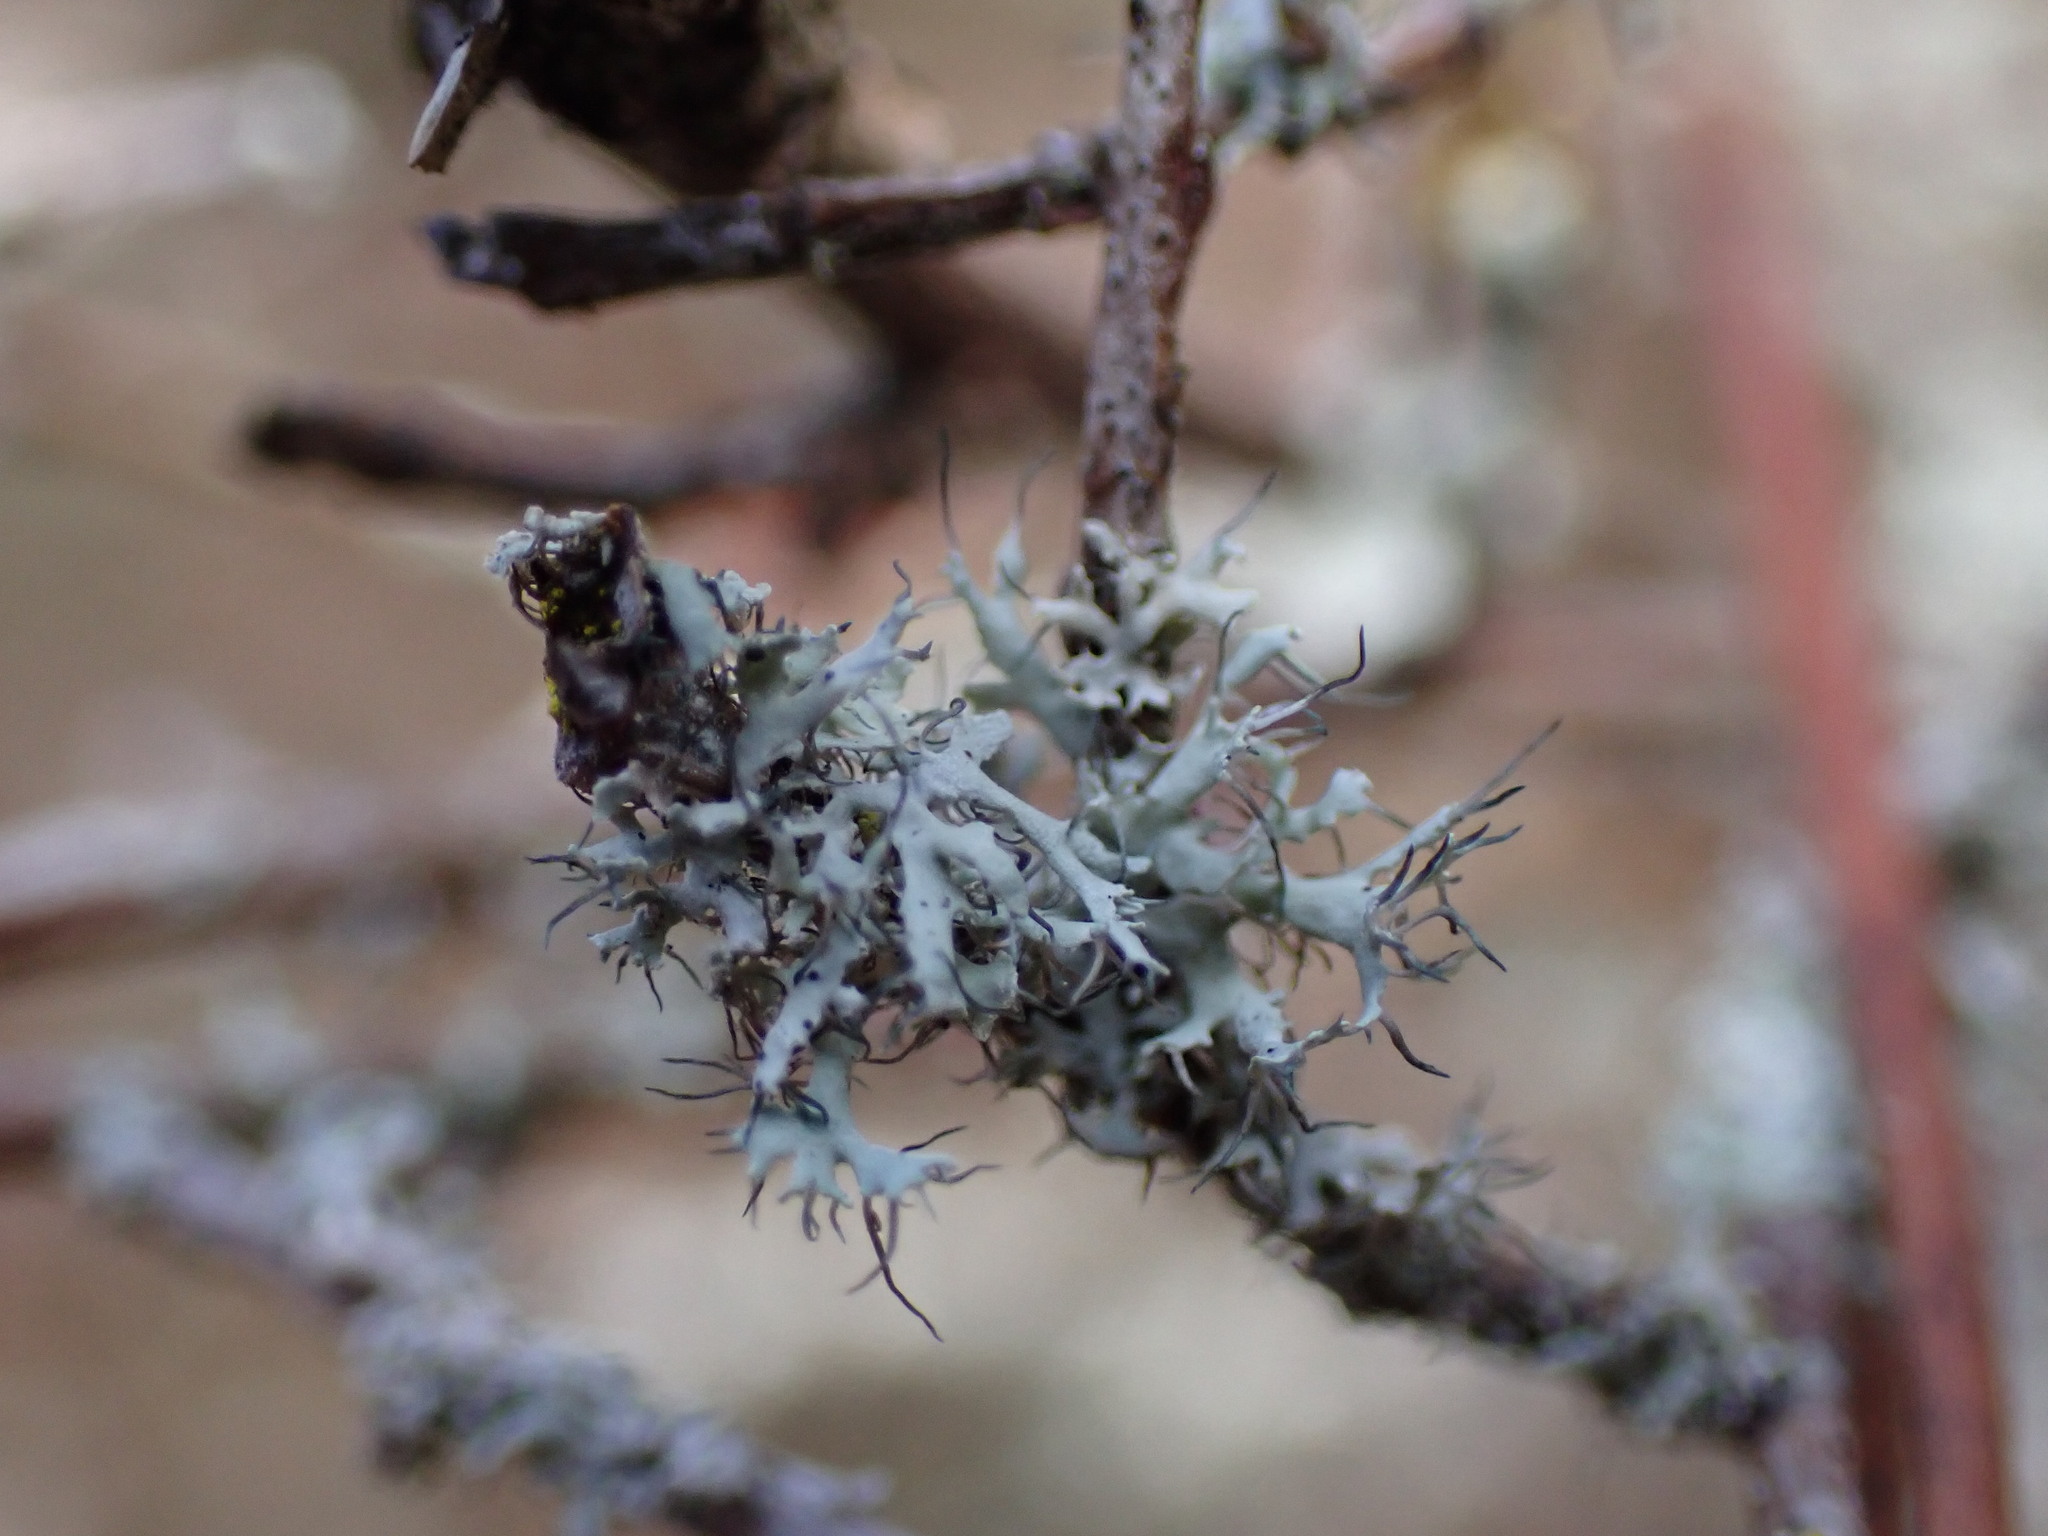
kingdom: Fungi
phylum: Ascomycota
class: Lecanoromycetes
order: Caliciales
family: Physciaceae
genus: Physcia
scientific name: Physcia tenella
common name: Fringed rosette lichen
